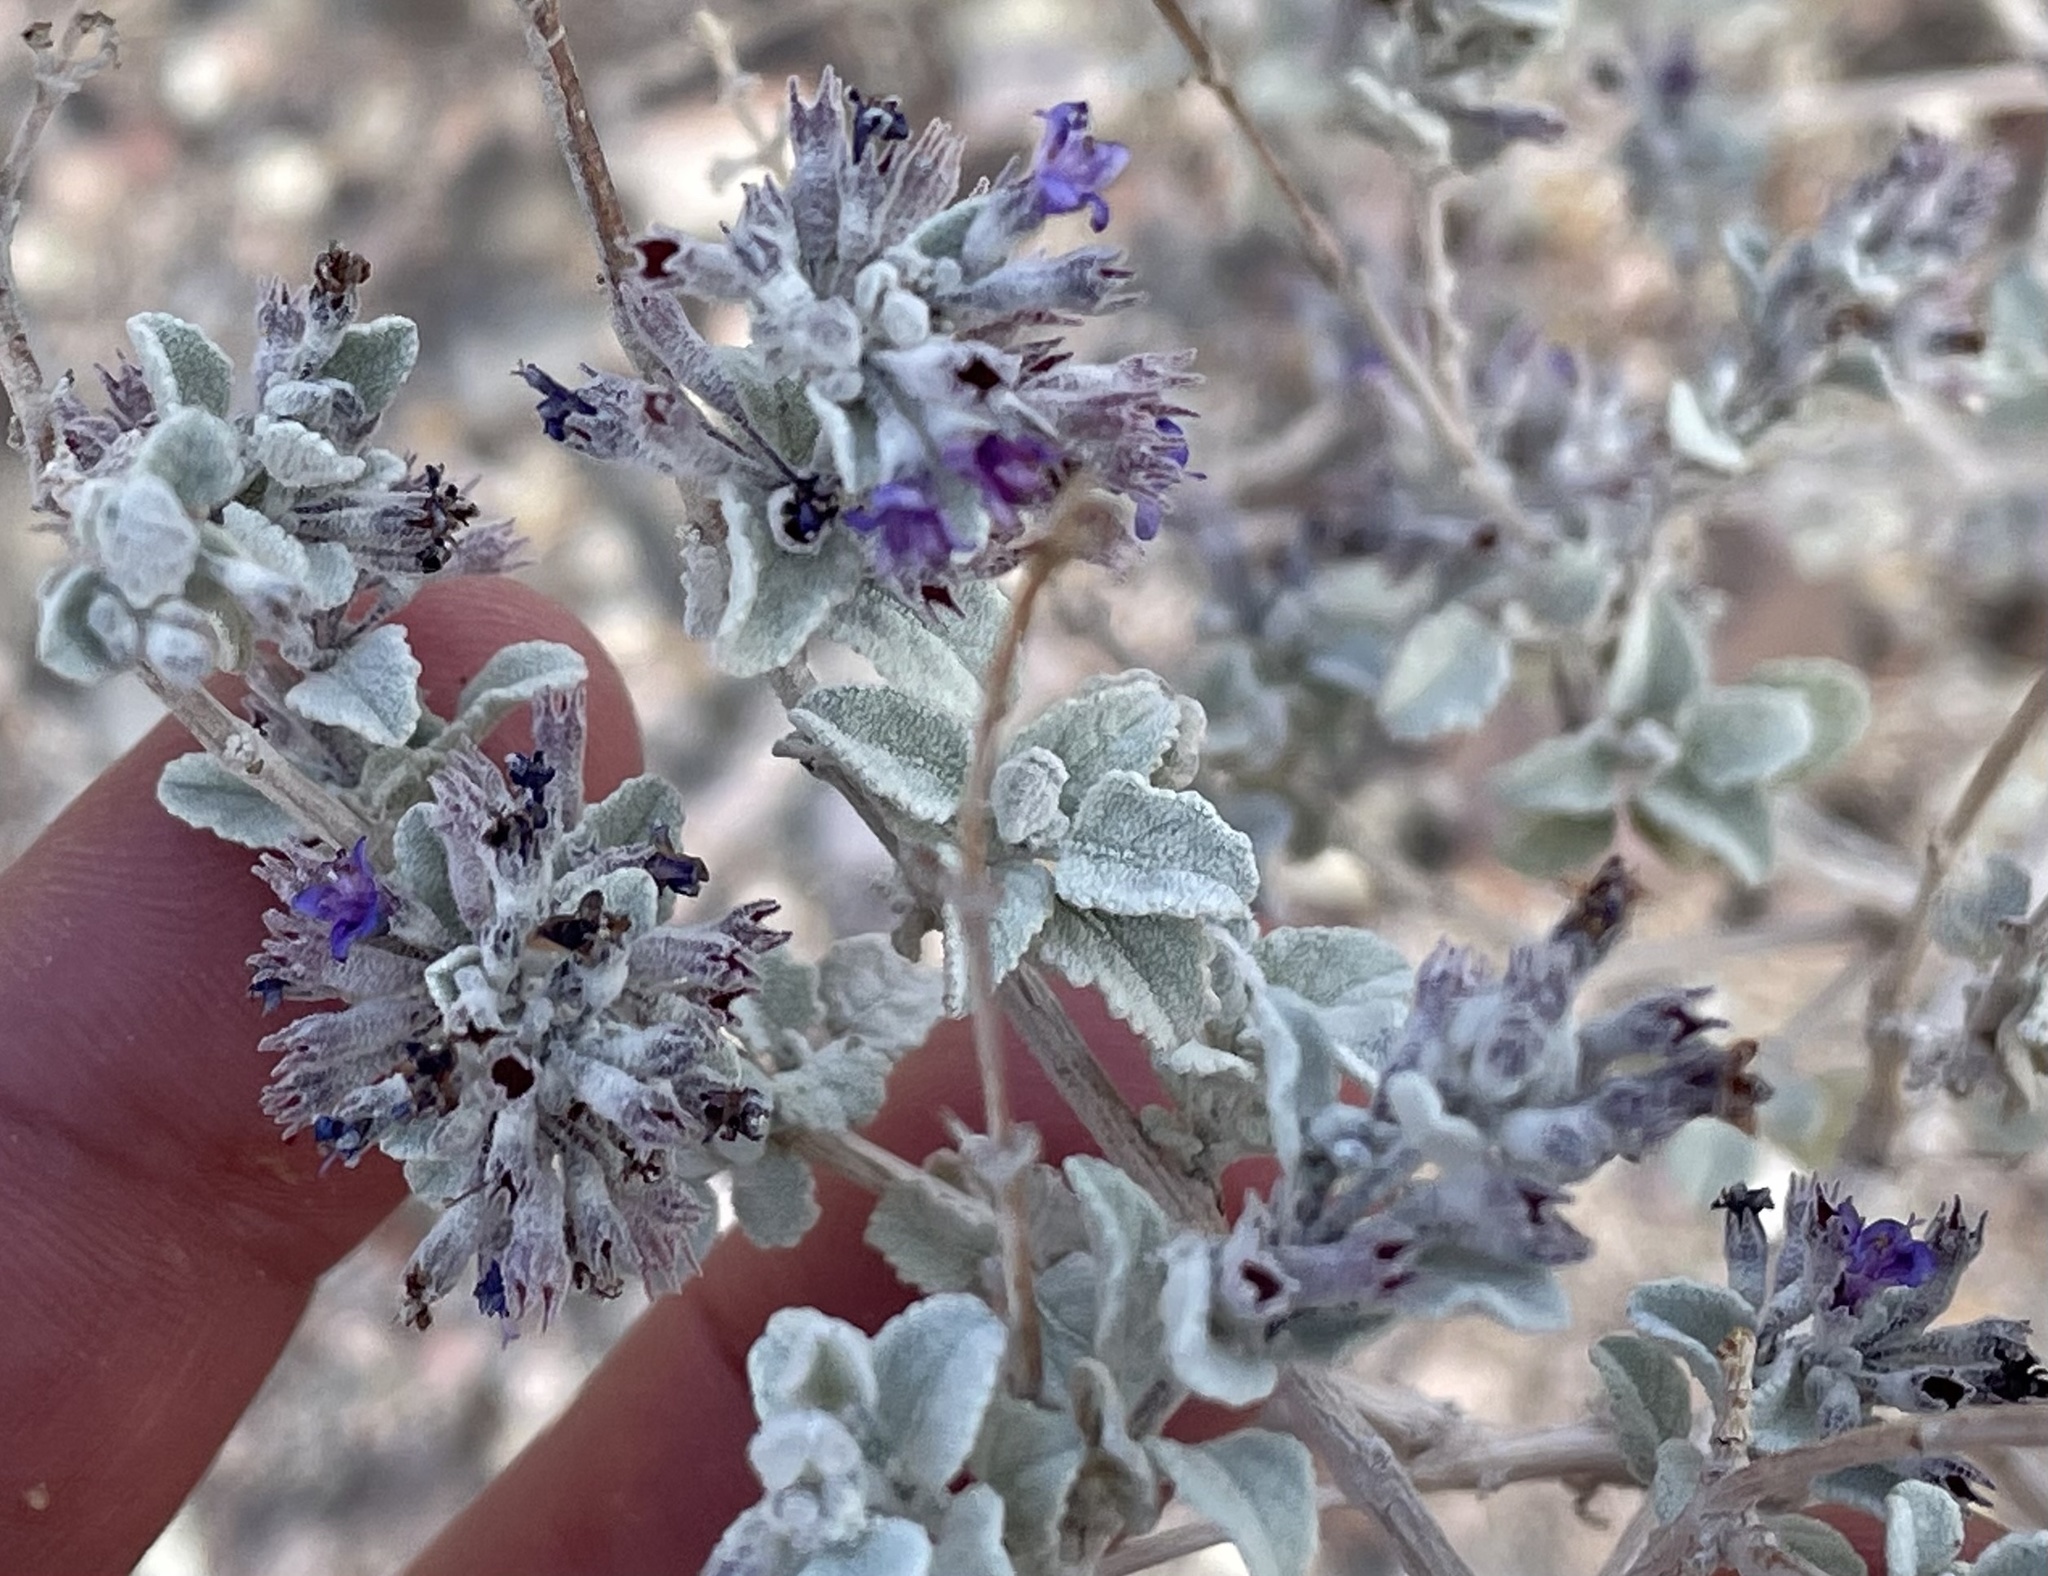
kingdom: Plantae
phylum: Tracheophyta
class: Magnoliopsida
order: Lamiales
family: Lamiaceae
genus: Condea
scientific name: Condea emoryi
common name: Chia
